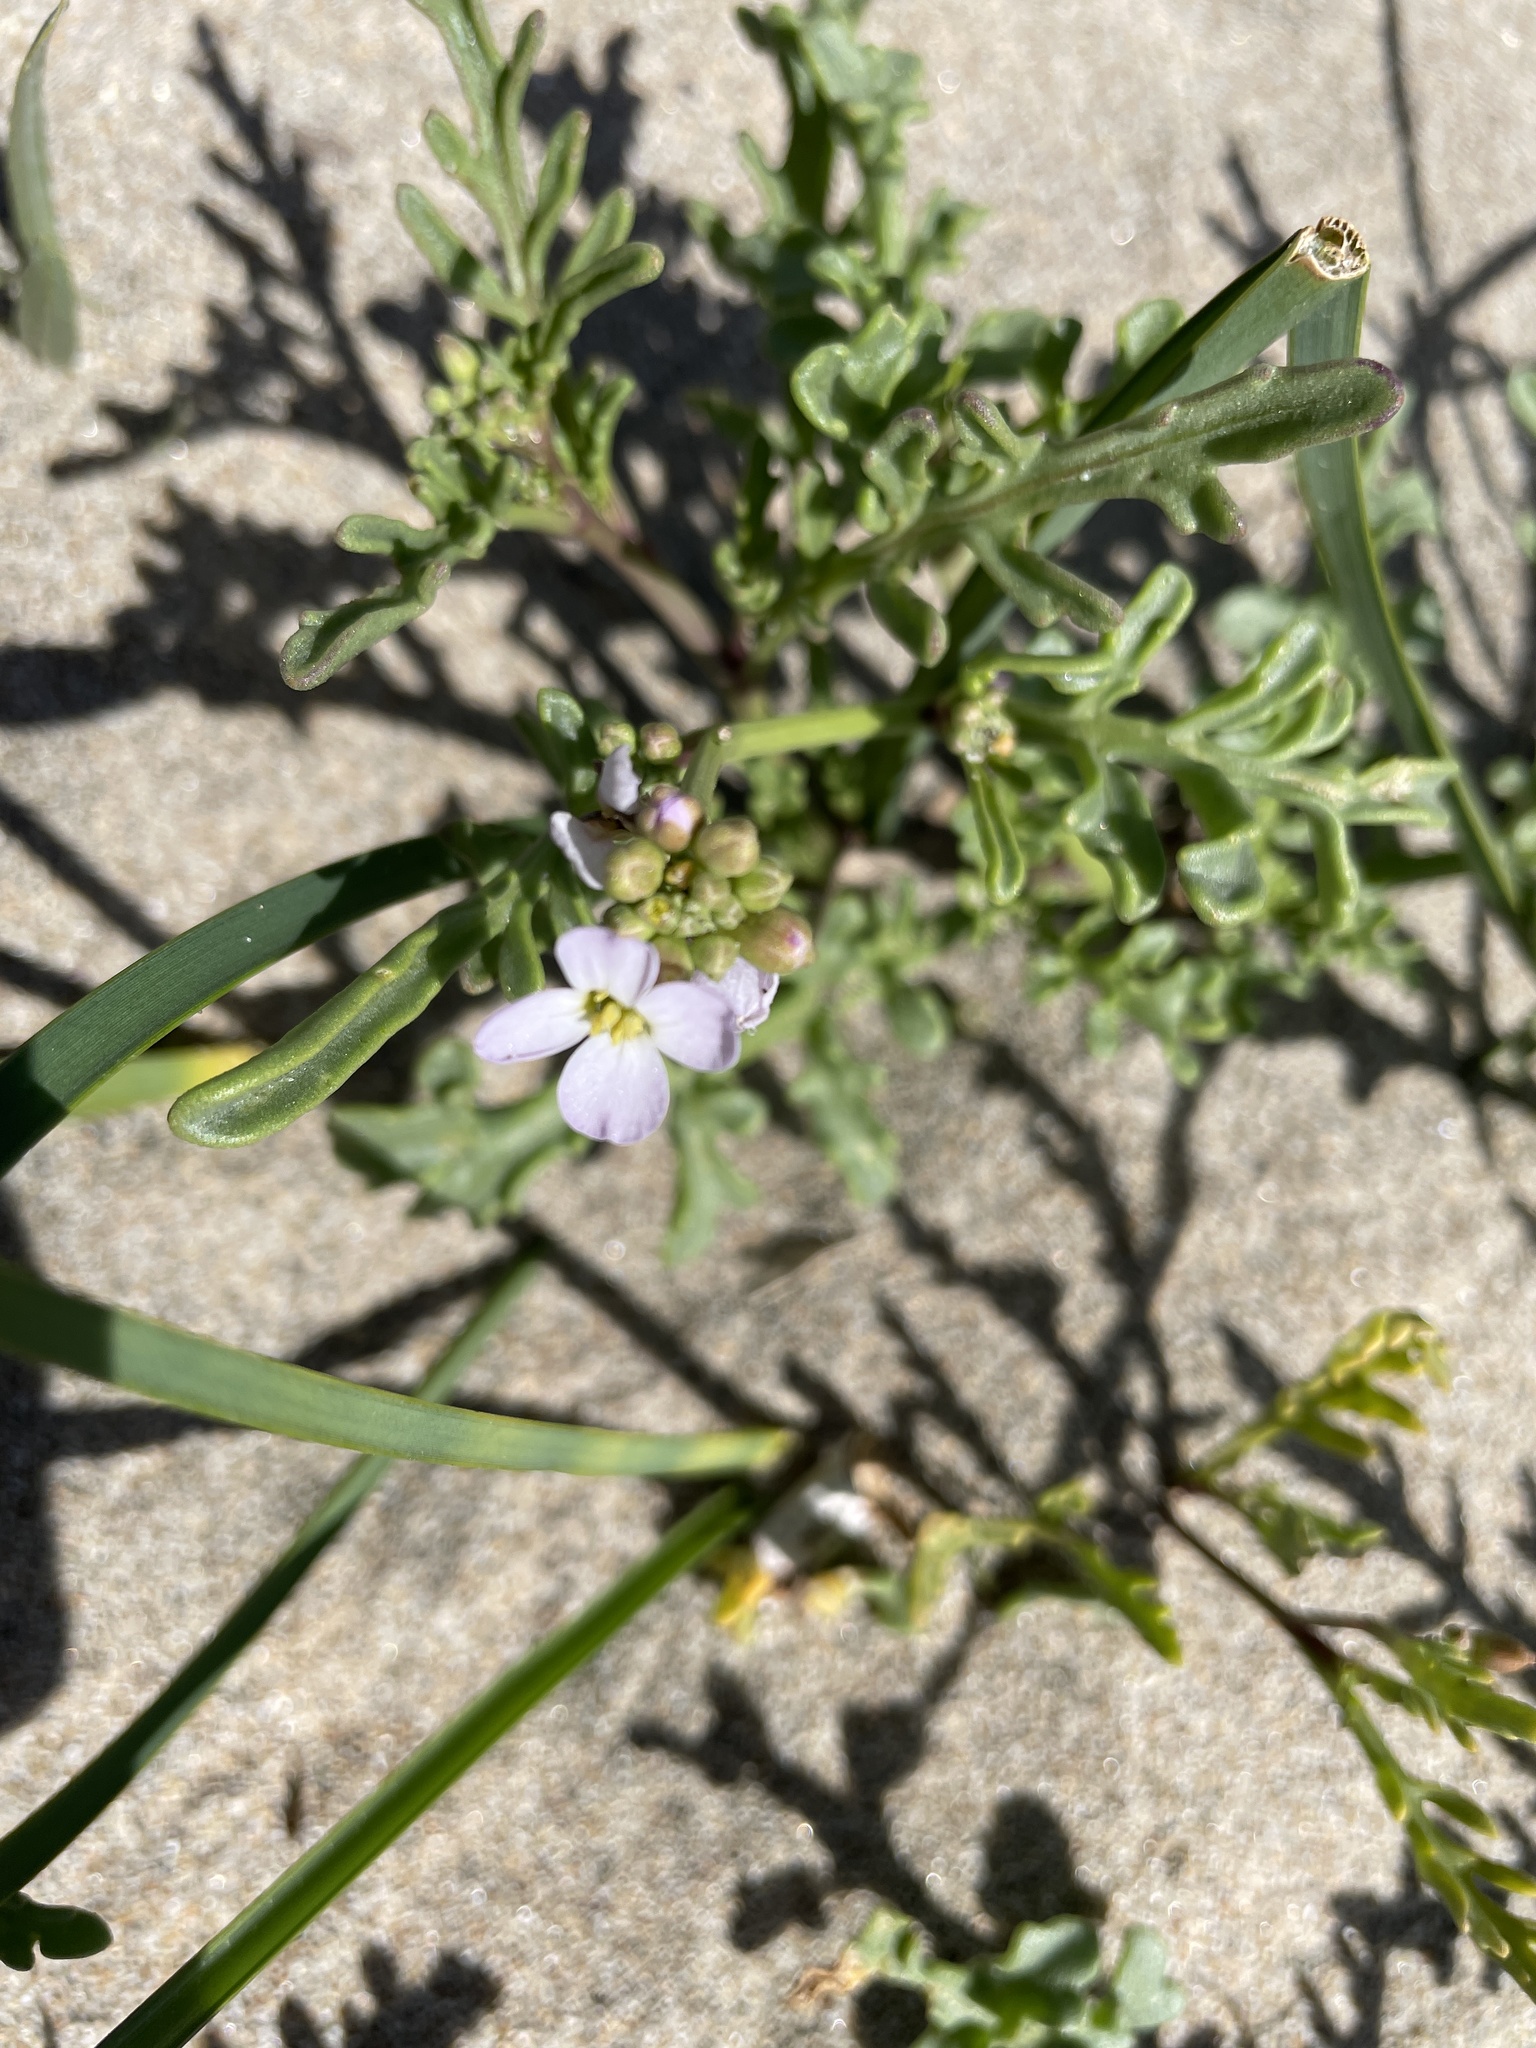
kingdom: Plantae
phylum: Tracheophyta
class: Magnoliopsida
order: Brassicales
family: Brassicaceae
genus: Cakile
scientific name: Cakile maritima
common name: Sea rocket
